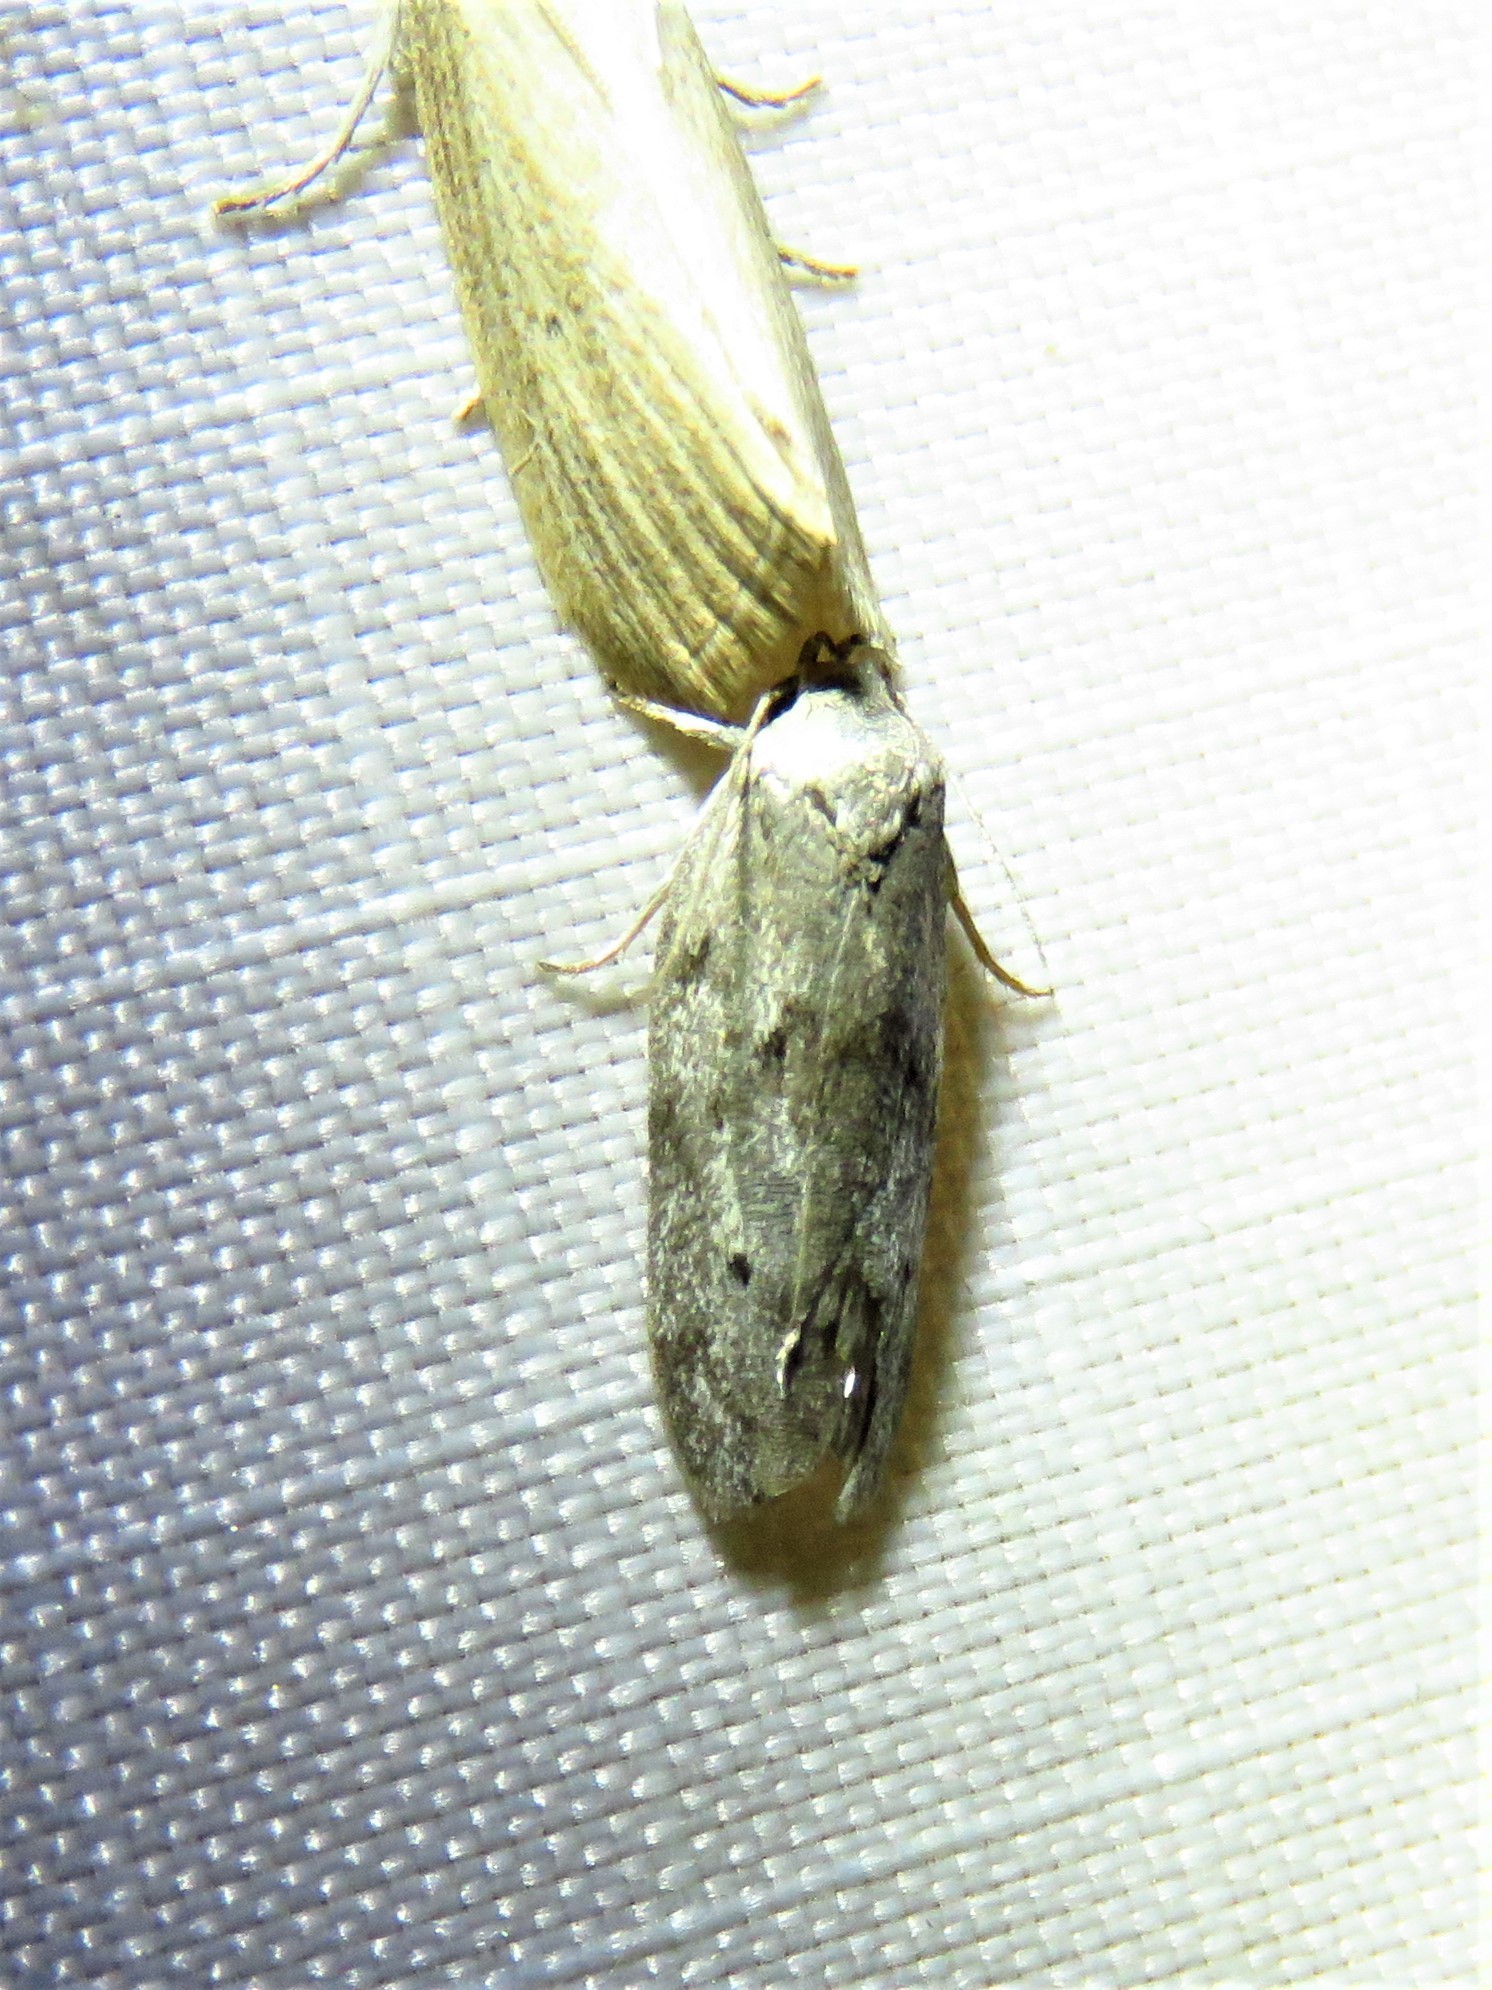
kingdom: Animalia
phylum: Arthropoda
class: Insecta
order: Lepidoptera
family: Depressariidae
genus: Antaeotricha
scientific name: Antaeotricha humilis
